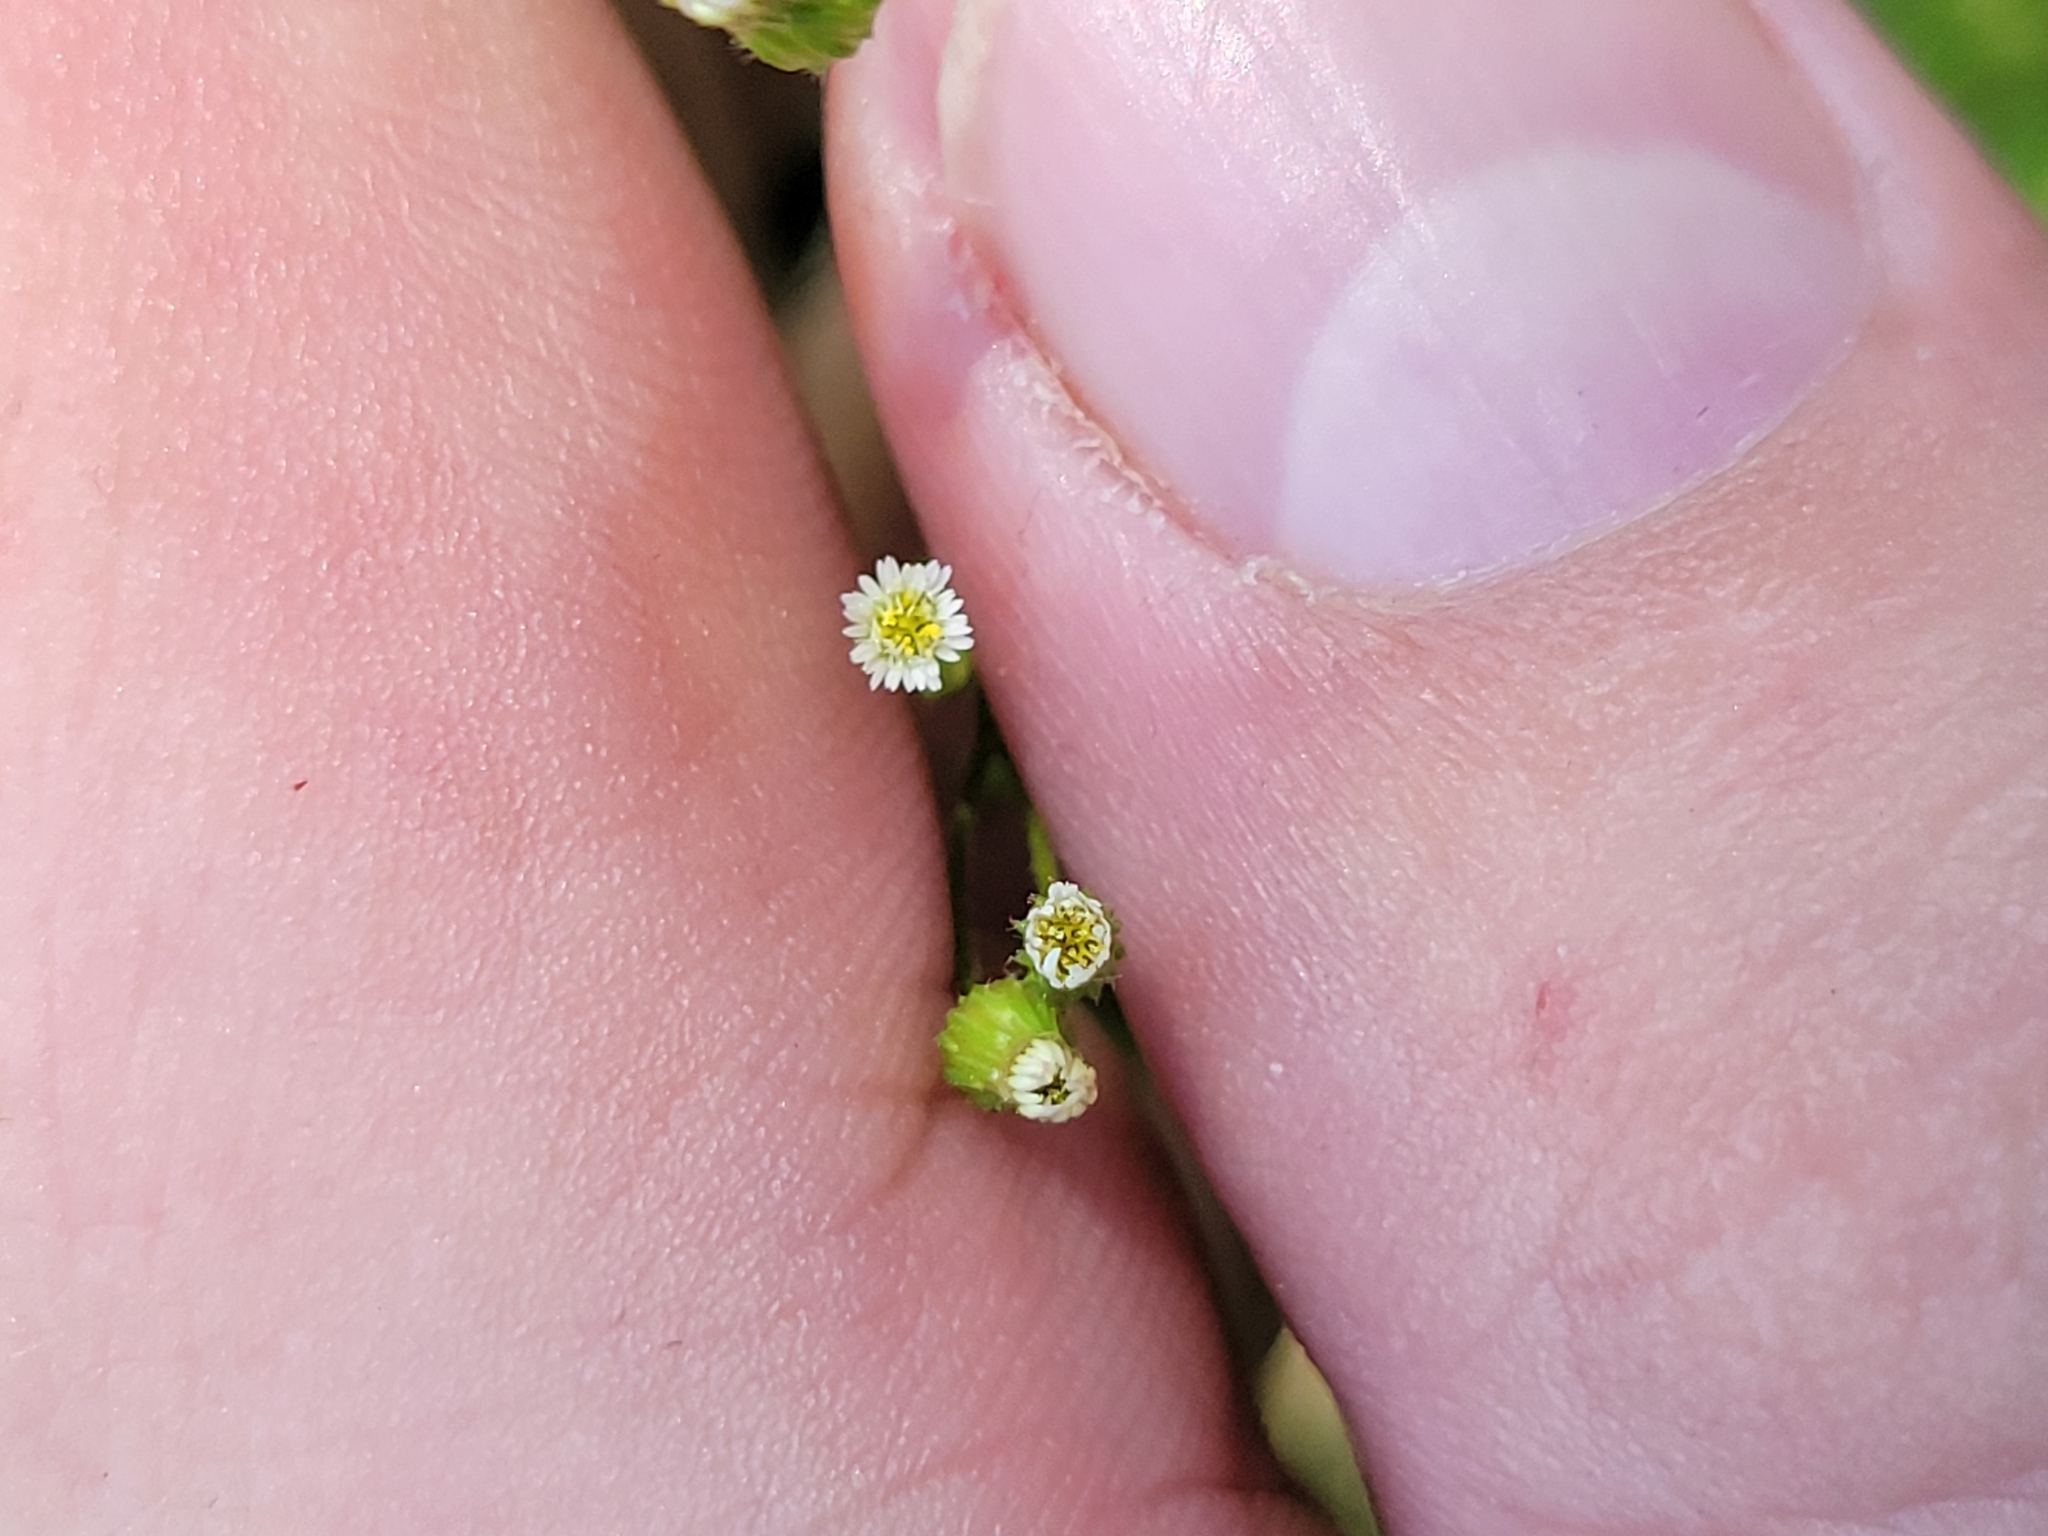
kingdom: Plantae
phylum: Tracheophyta
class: Magnoliopsida
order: Asterales
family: Asteraceae
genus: Erigeron
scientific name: Erigeron canadensis
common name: Canadian fleabane
